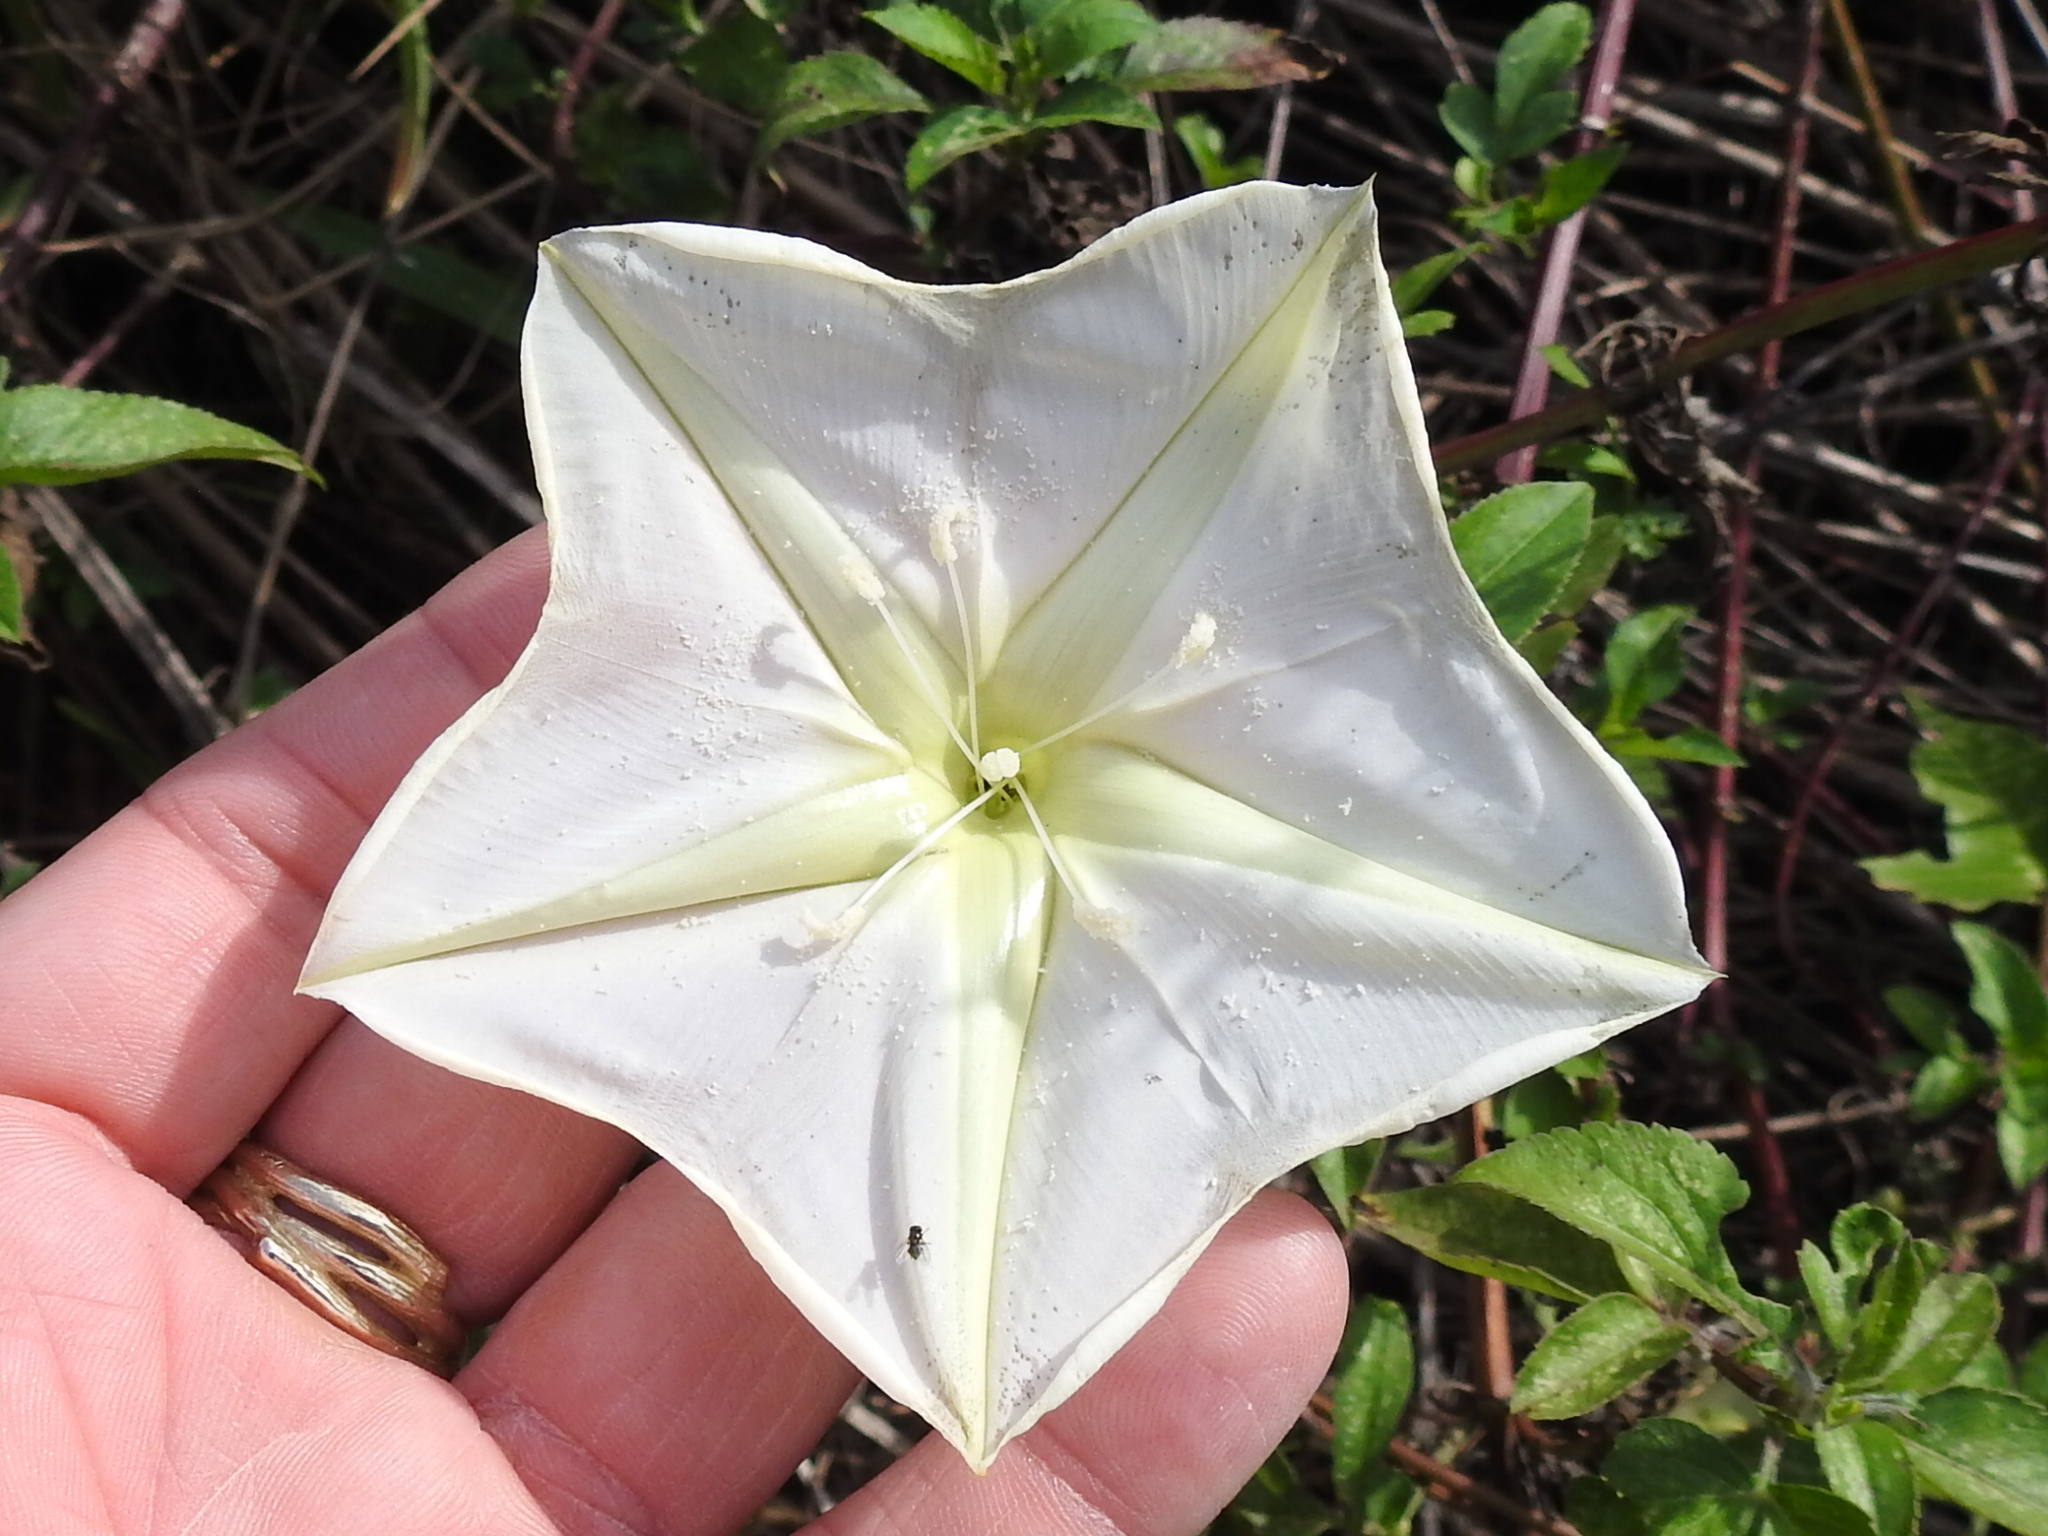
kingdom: Plantae
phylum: Tracheophyta
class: Magnoliopsida
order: Solanales
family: Convolvulaceae
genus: Ipomoea
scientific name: Ipomoea alba
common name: Moonflower
